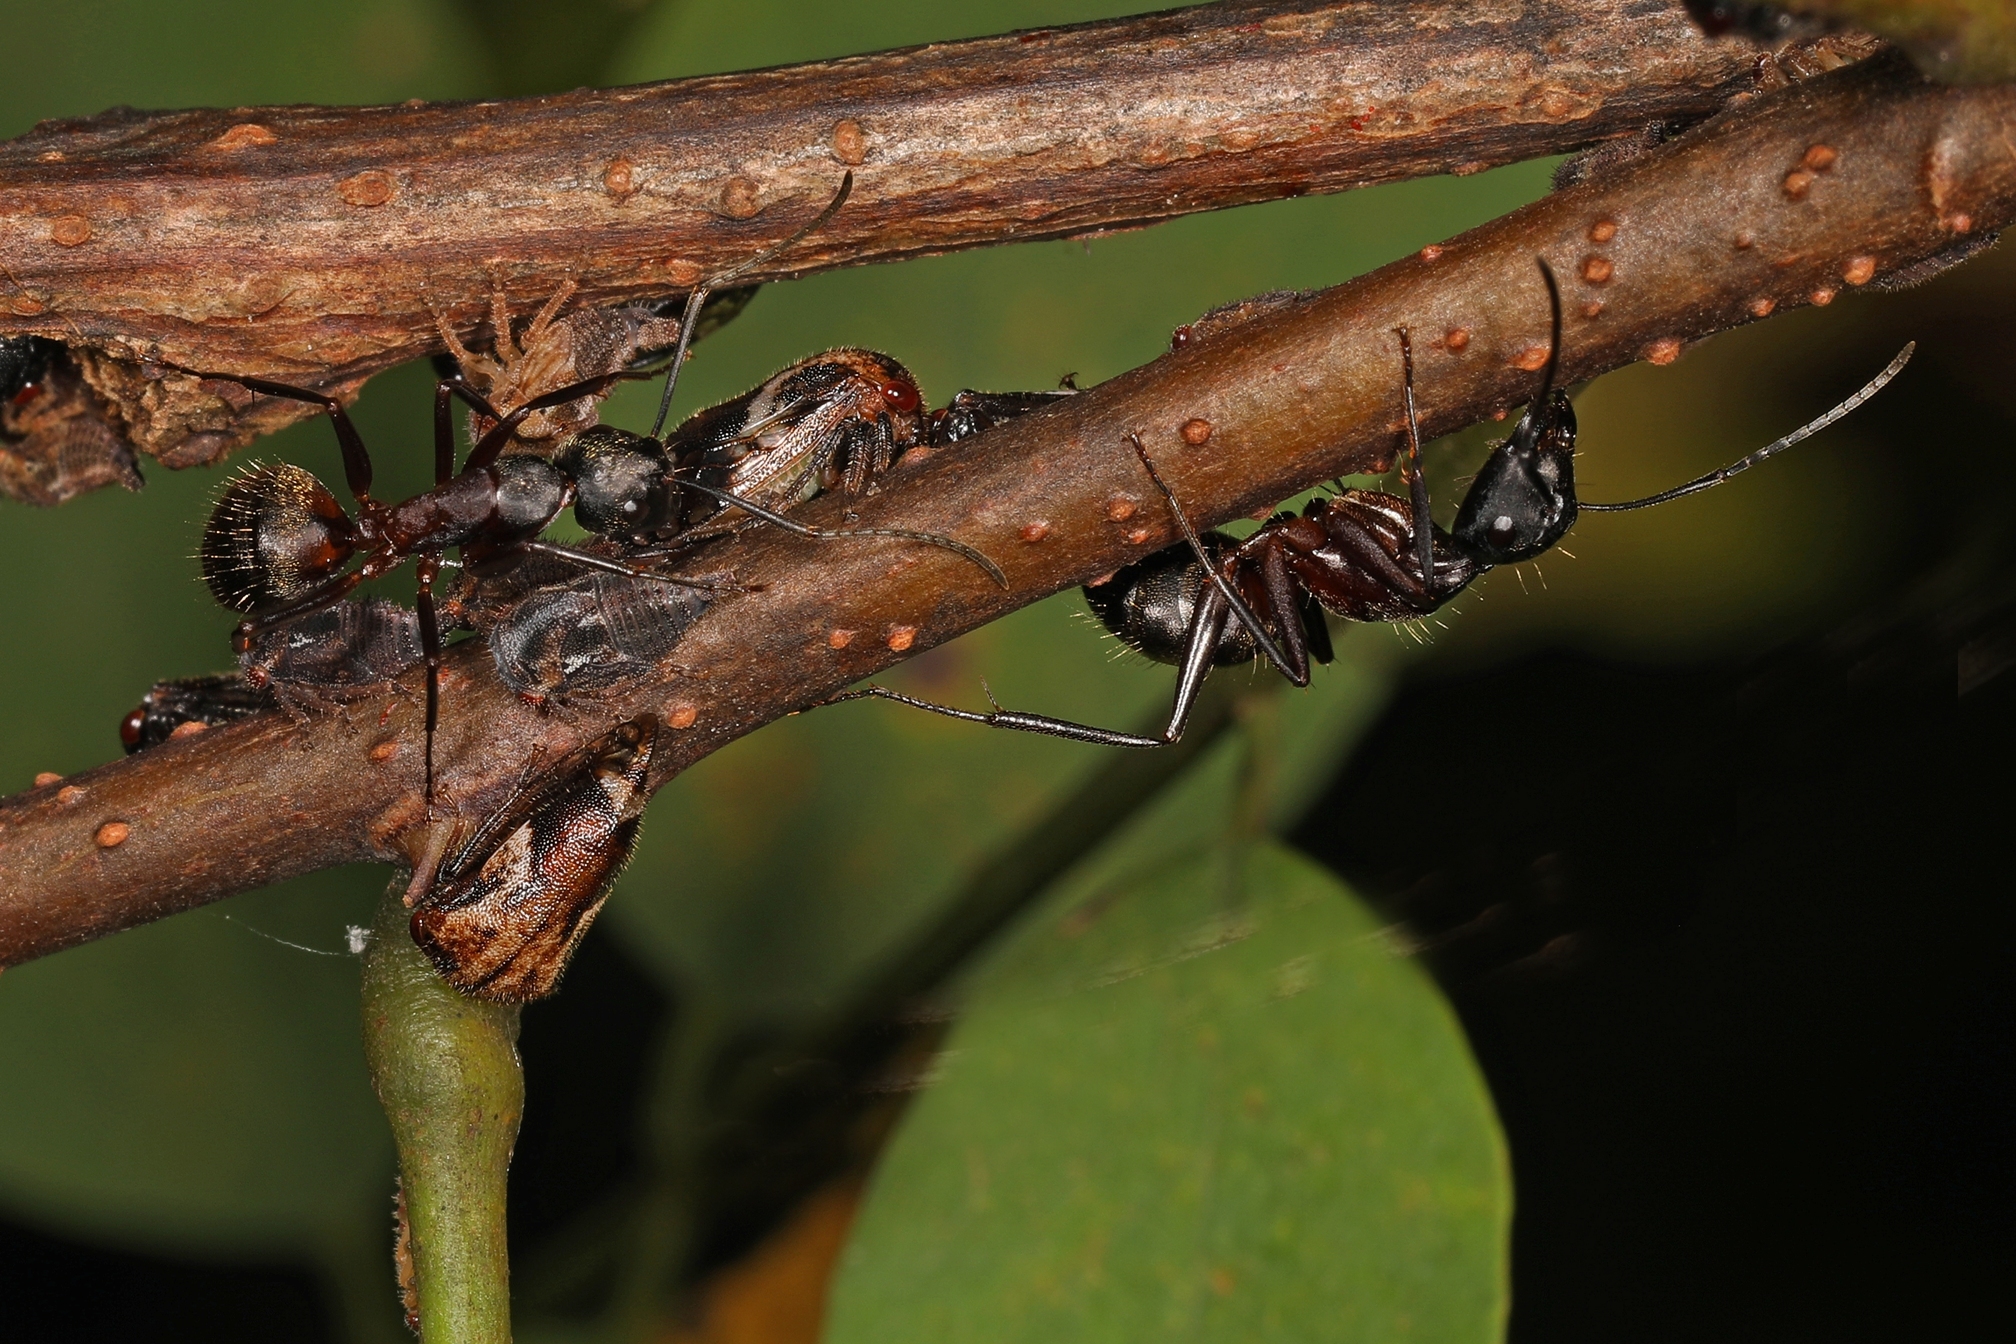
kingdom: Animalia
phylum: Arthropoda
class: Insecta
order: Hymenoptera
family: Formicidae
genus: Camponotus
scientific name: Camponotus chromaiodes
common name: Red carpenter ant
